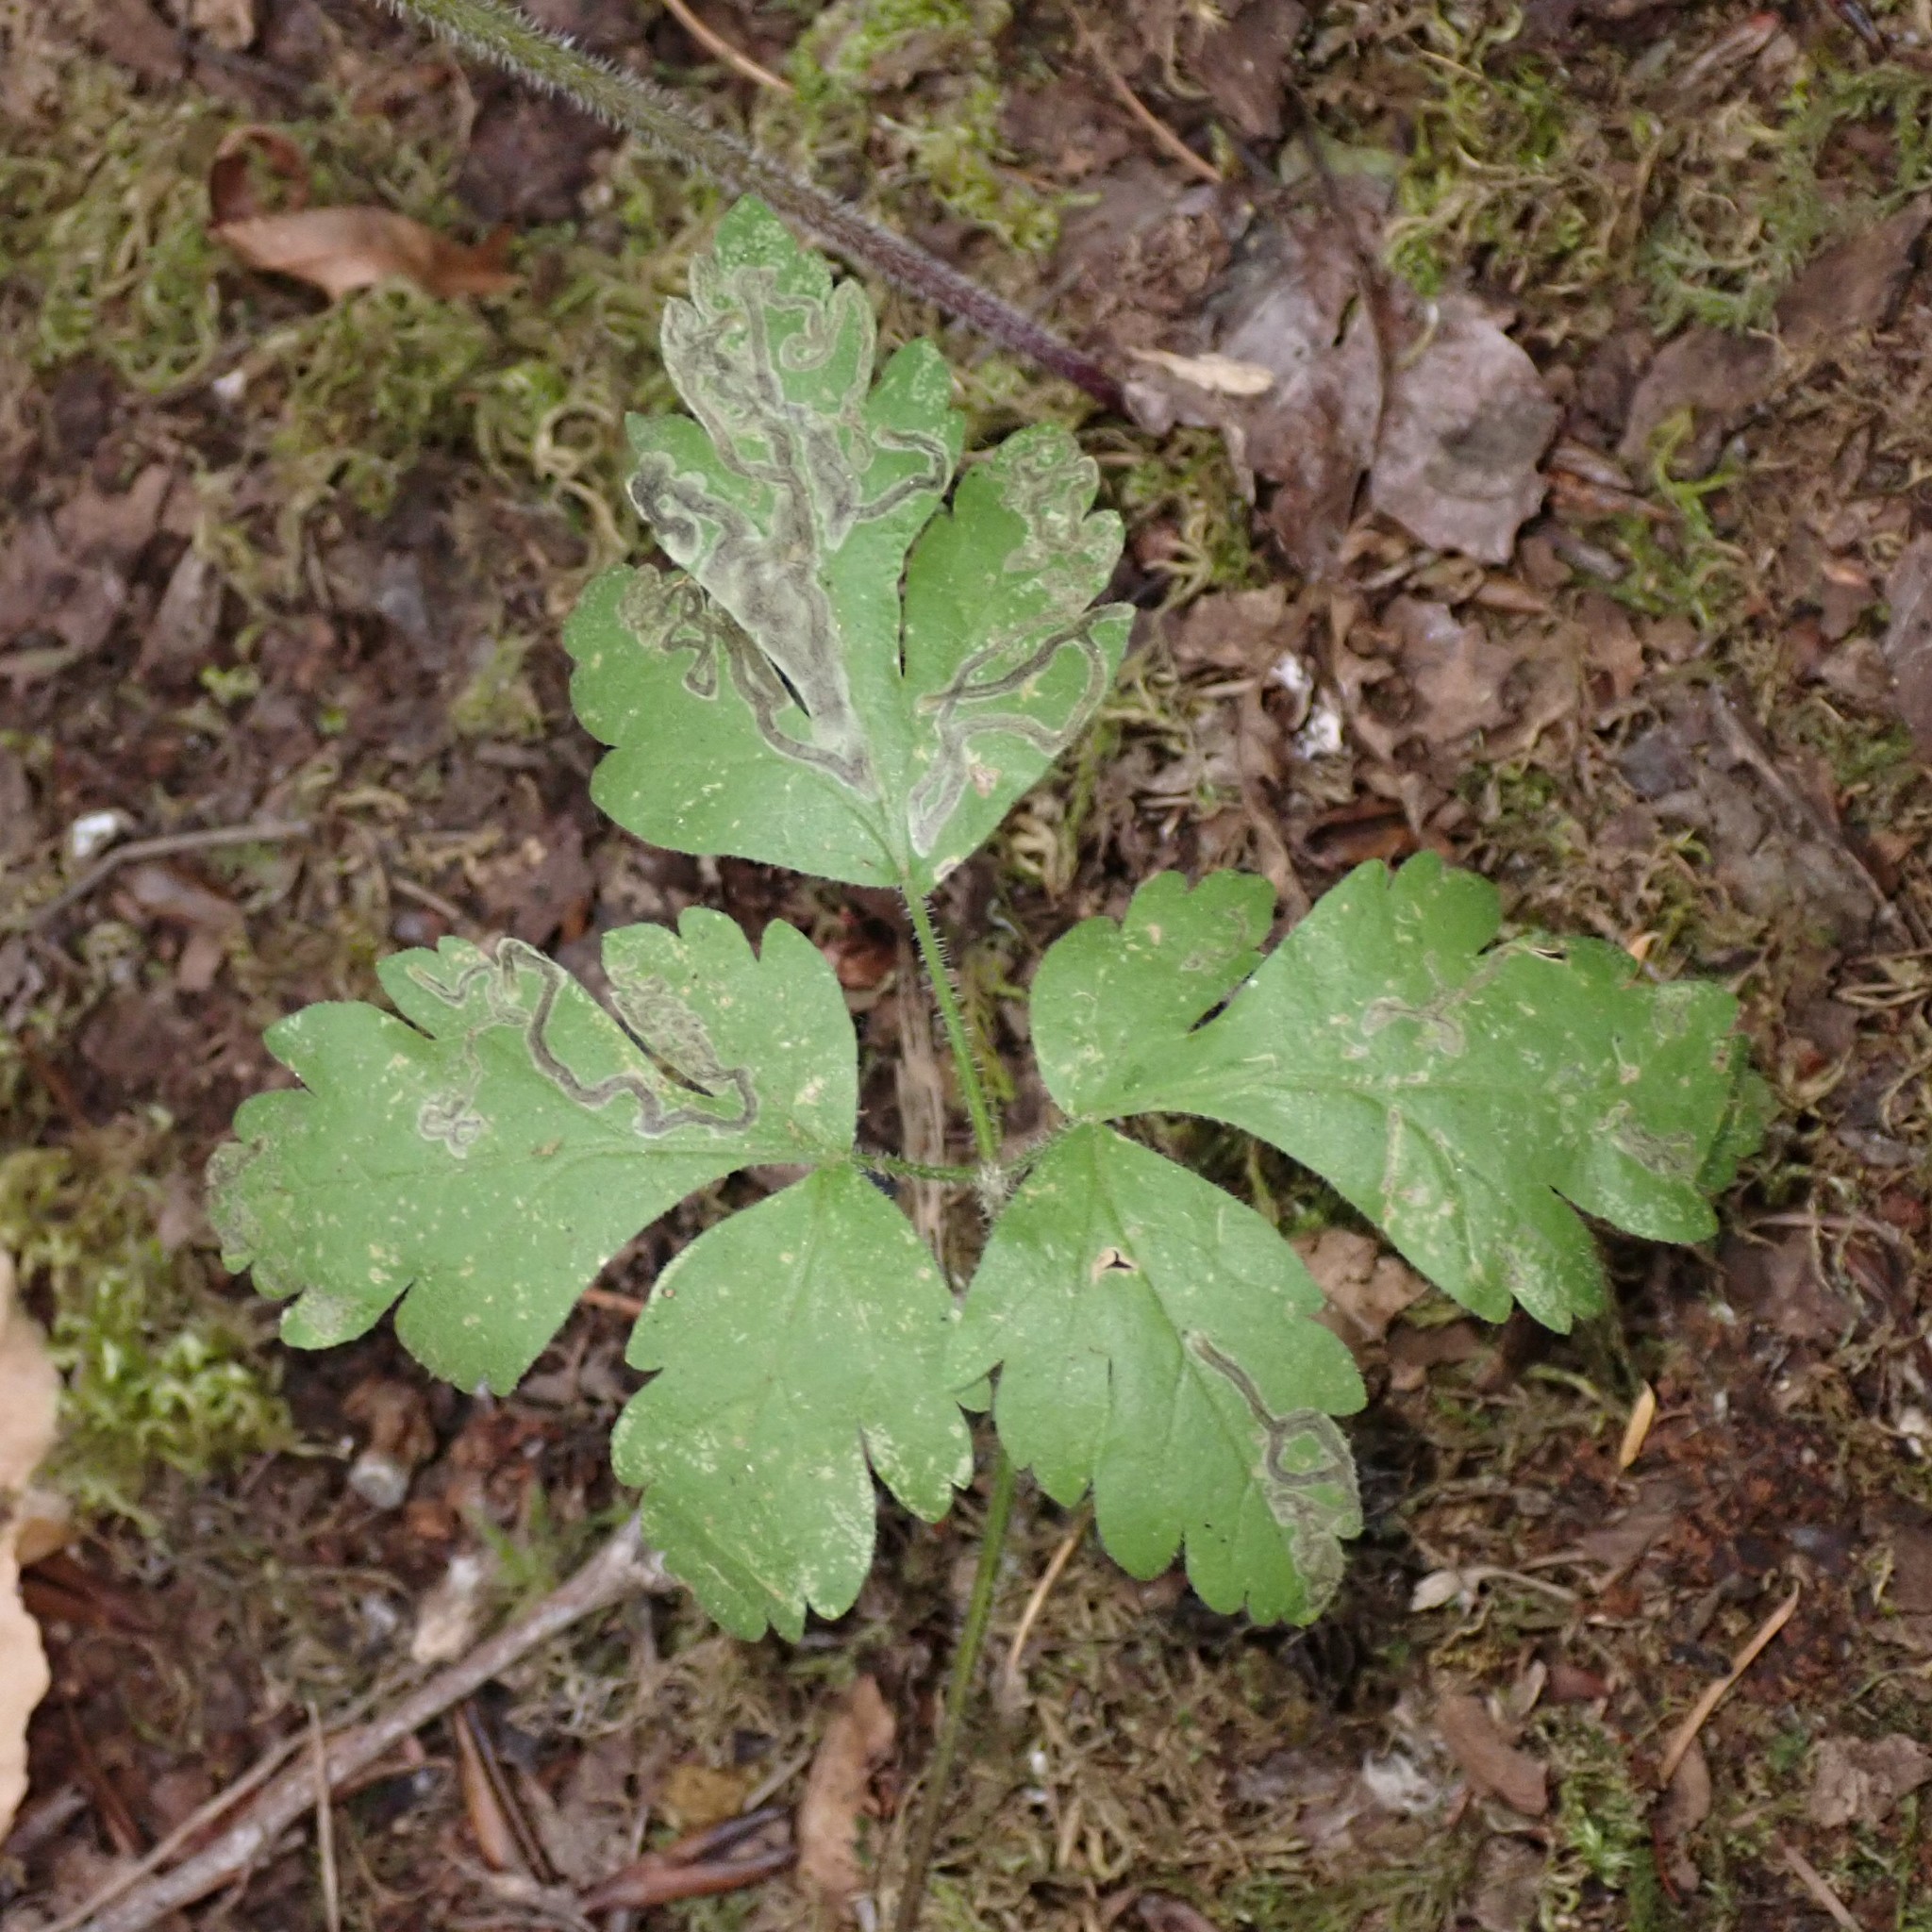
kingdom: Plantae
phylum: Tracheophyta
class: Magnoliopsida
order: Apiales
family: Apiaceae
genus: Osmorhiza
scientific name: Osmorhiza berteroi
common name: Mountain sweet cicely
